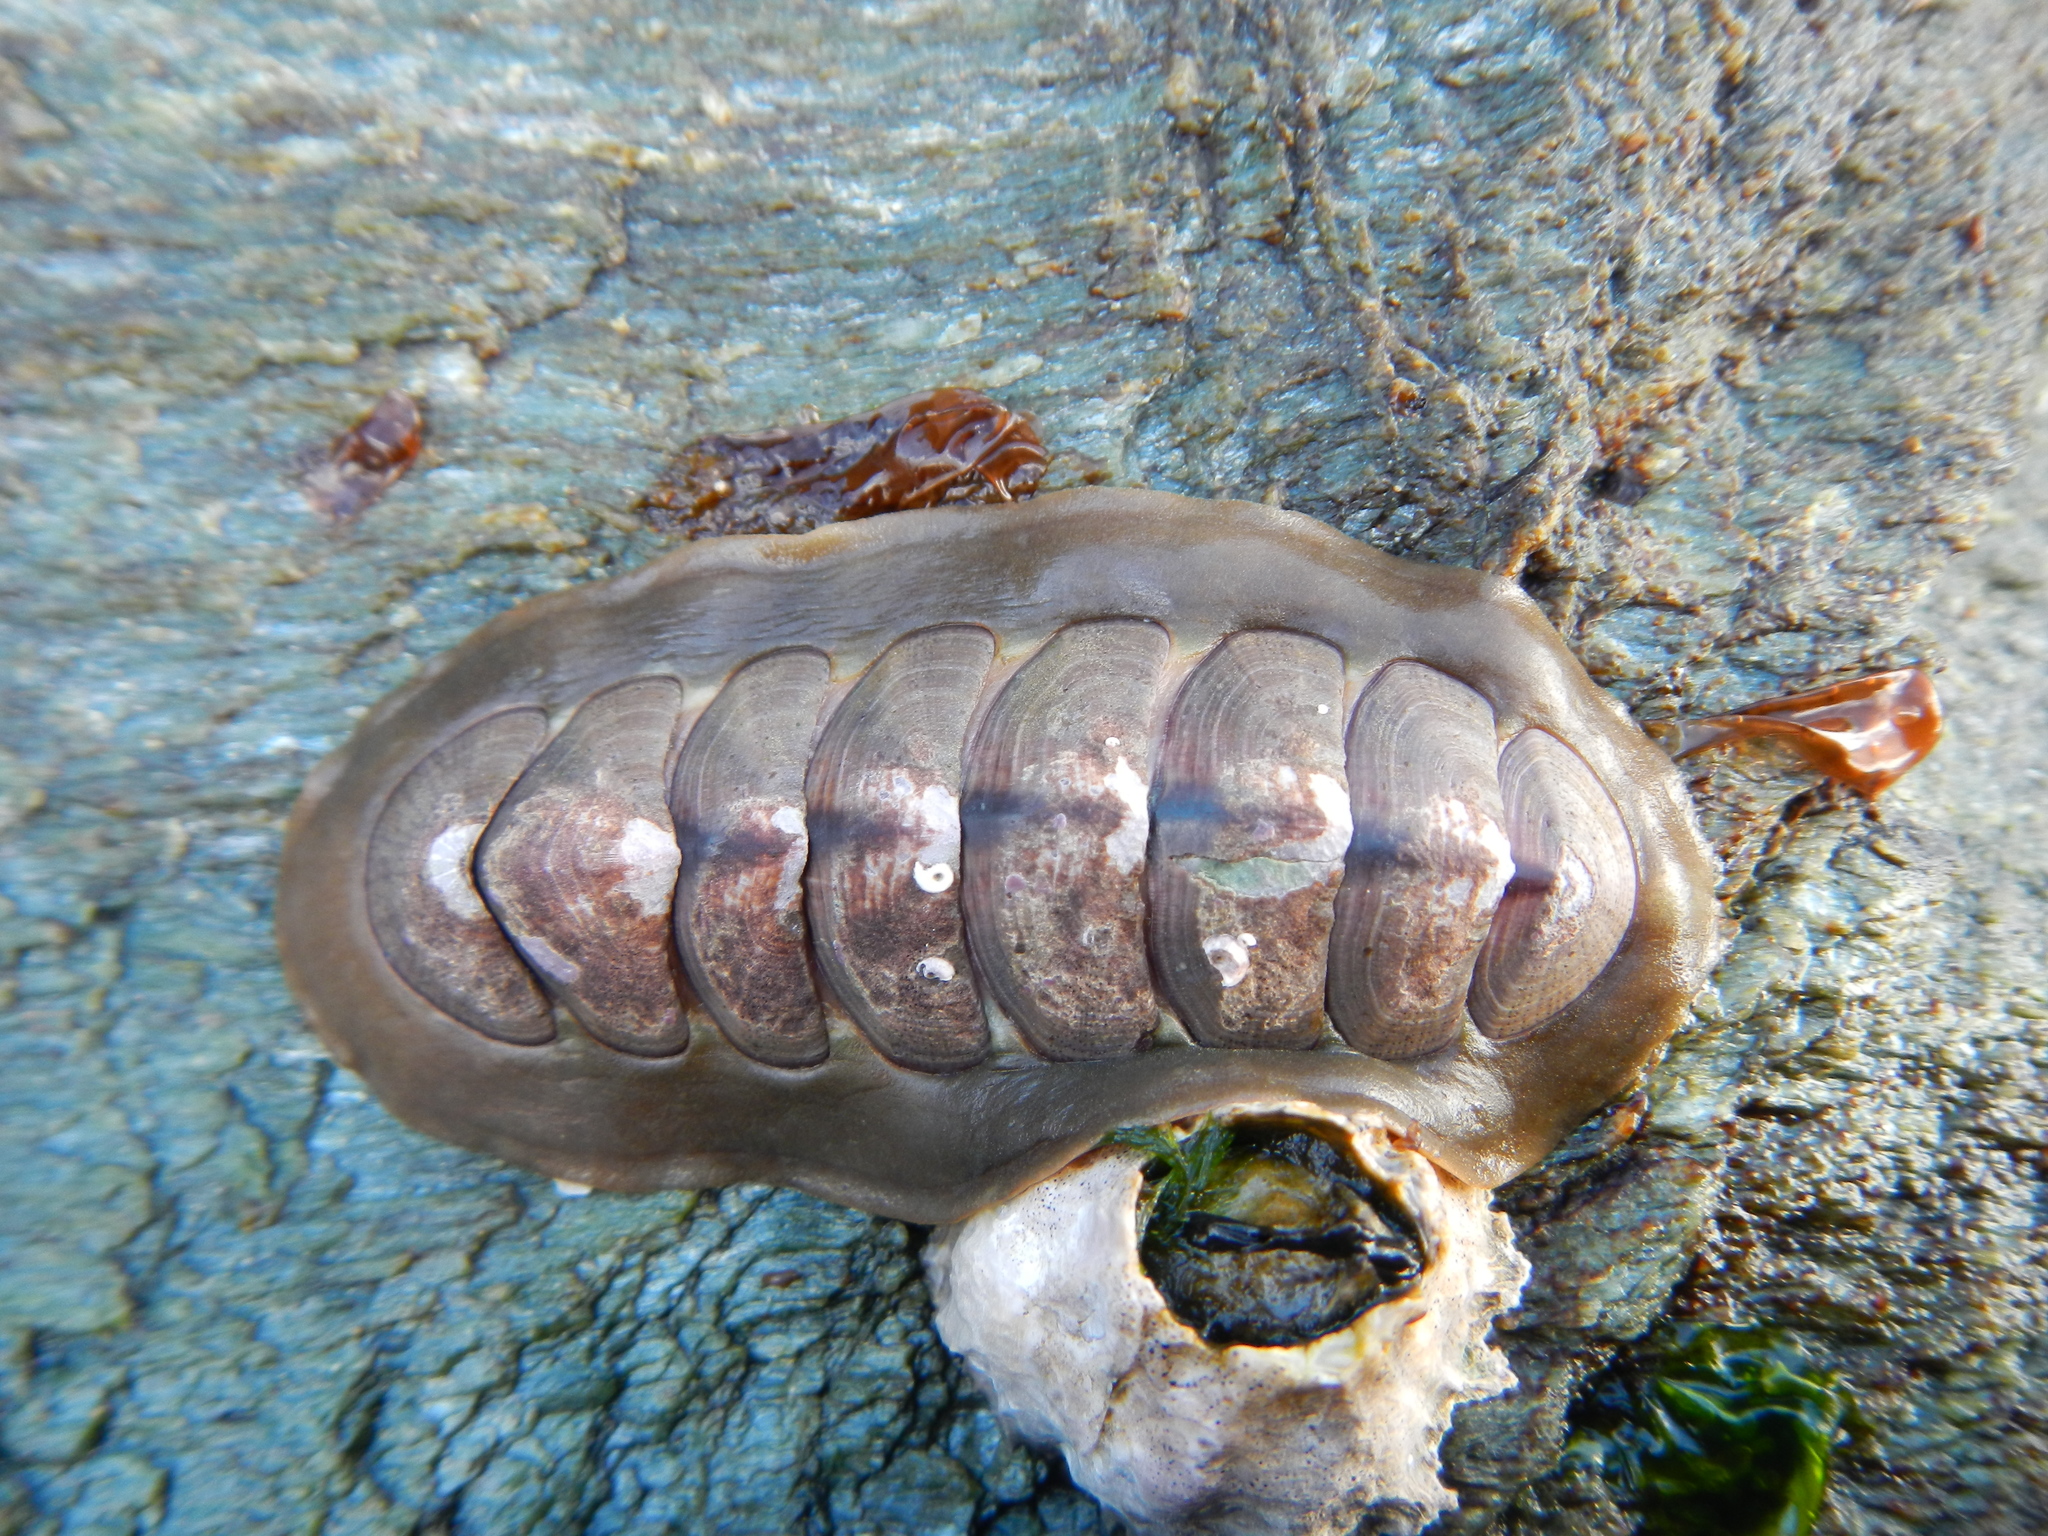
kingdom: Animalia
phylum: Mollusca
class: Polyplacophora
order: Chitonida
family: Chitonidae
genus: Tonicia
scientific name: Tonicia chilensis
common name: Chilean chiton
